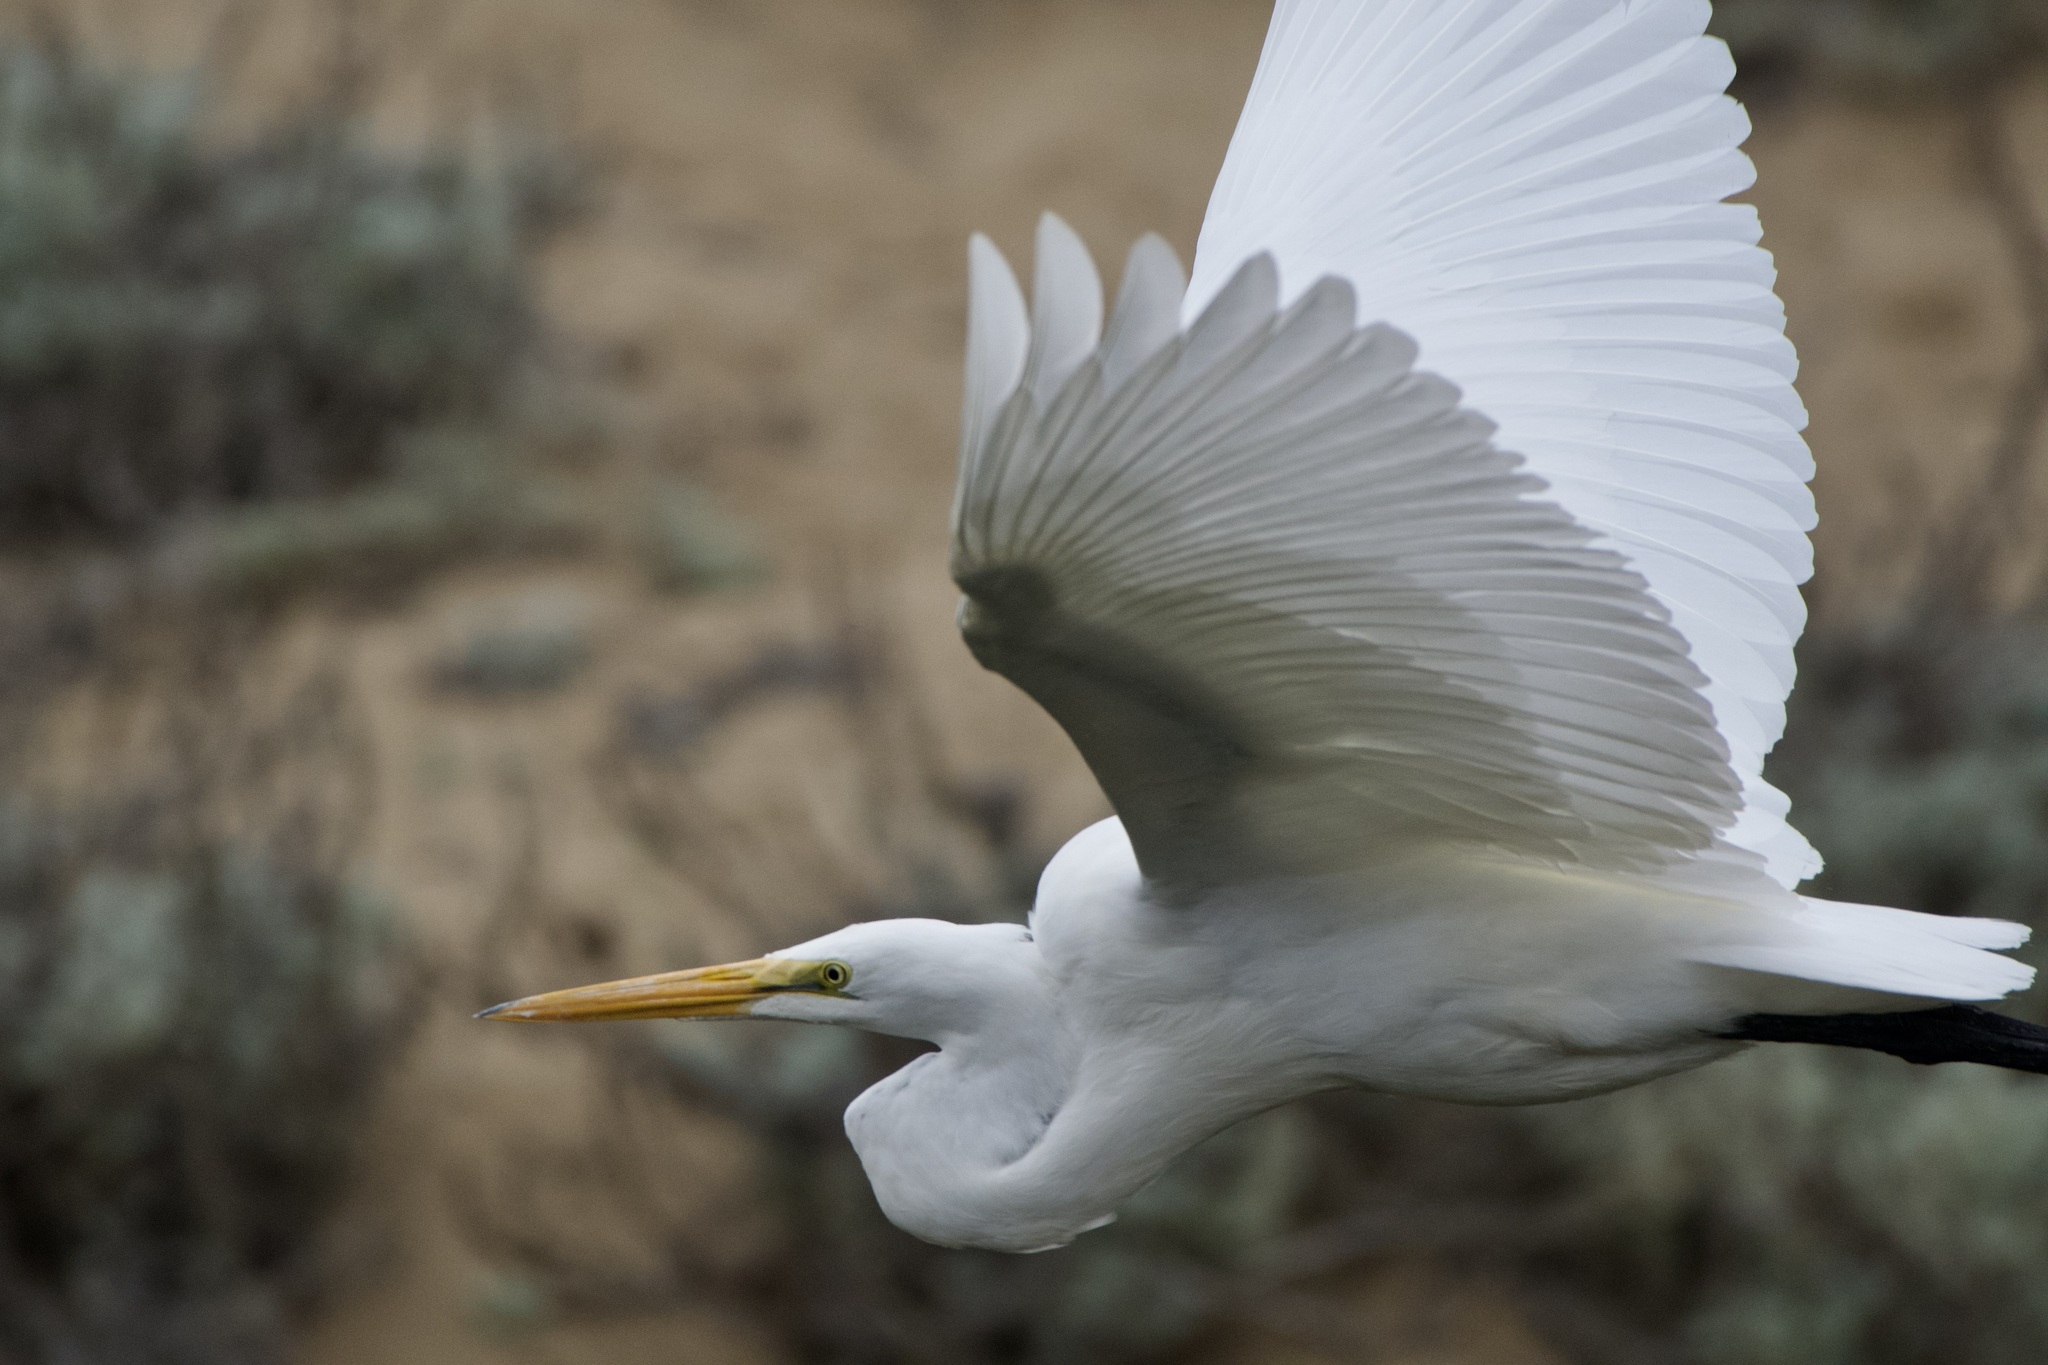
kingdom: Animalia
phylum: Chordata
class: Aves
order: Pelecaniformes
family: Ardeidae
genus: Ardea
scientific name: Ardea alba
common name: Great egret
